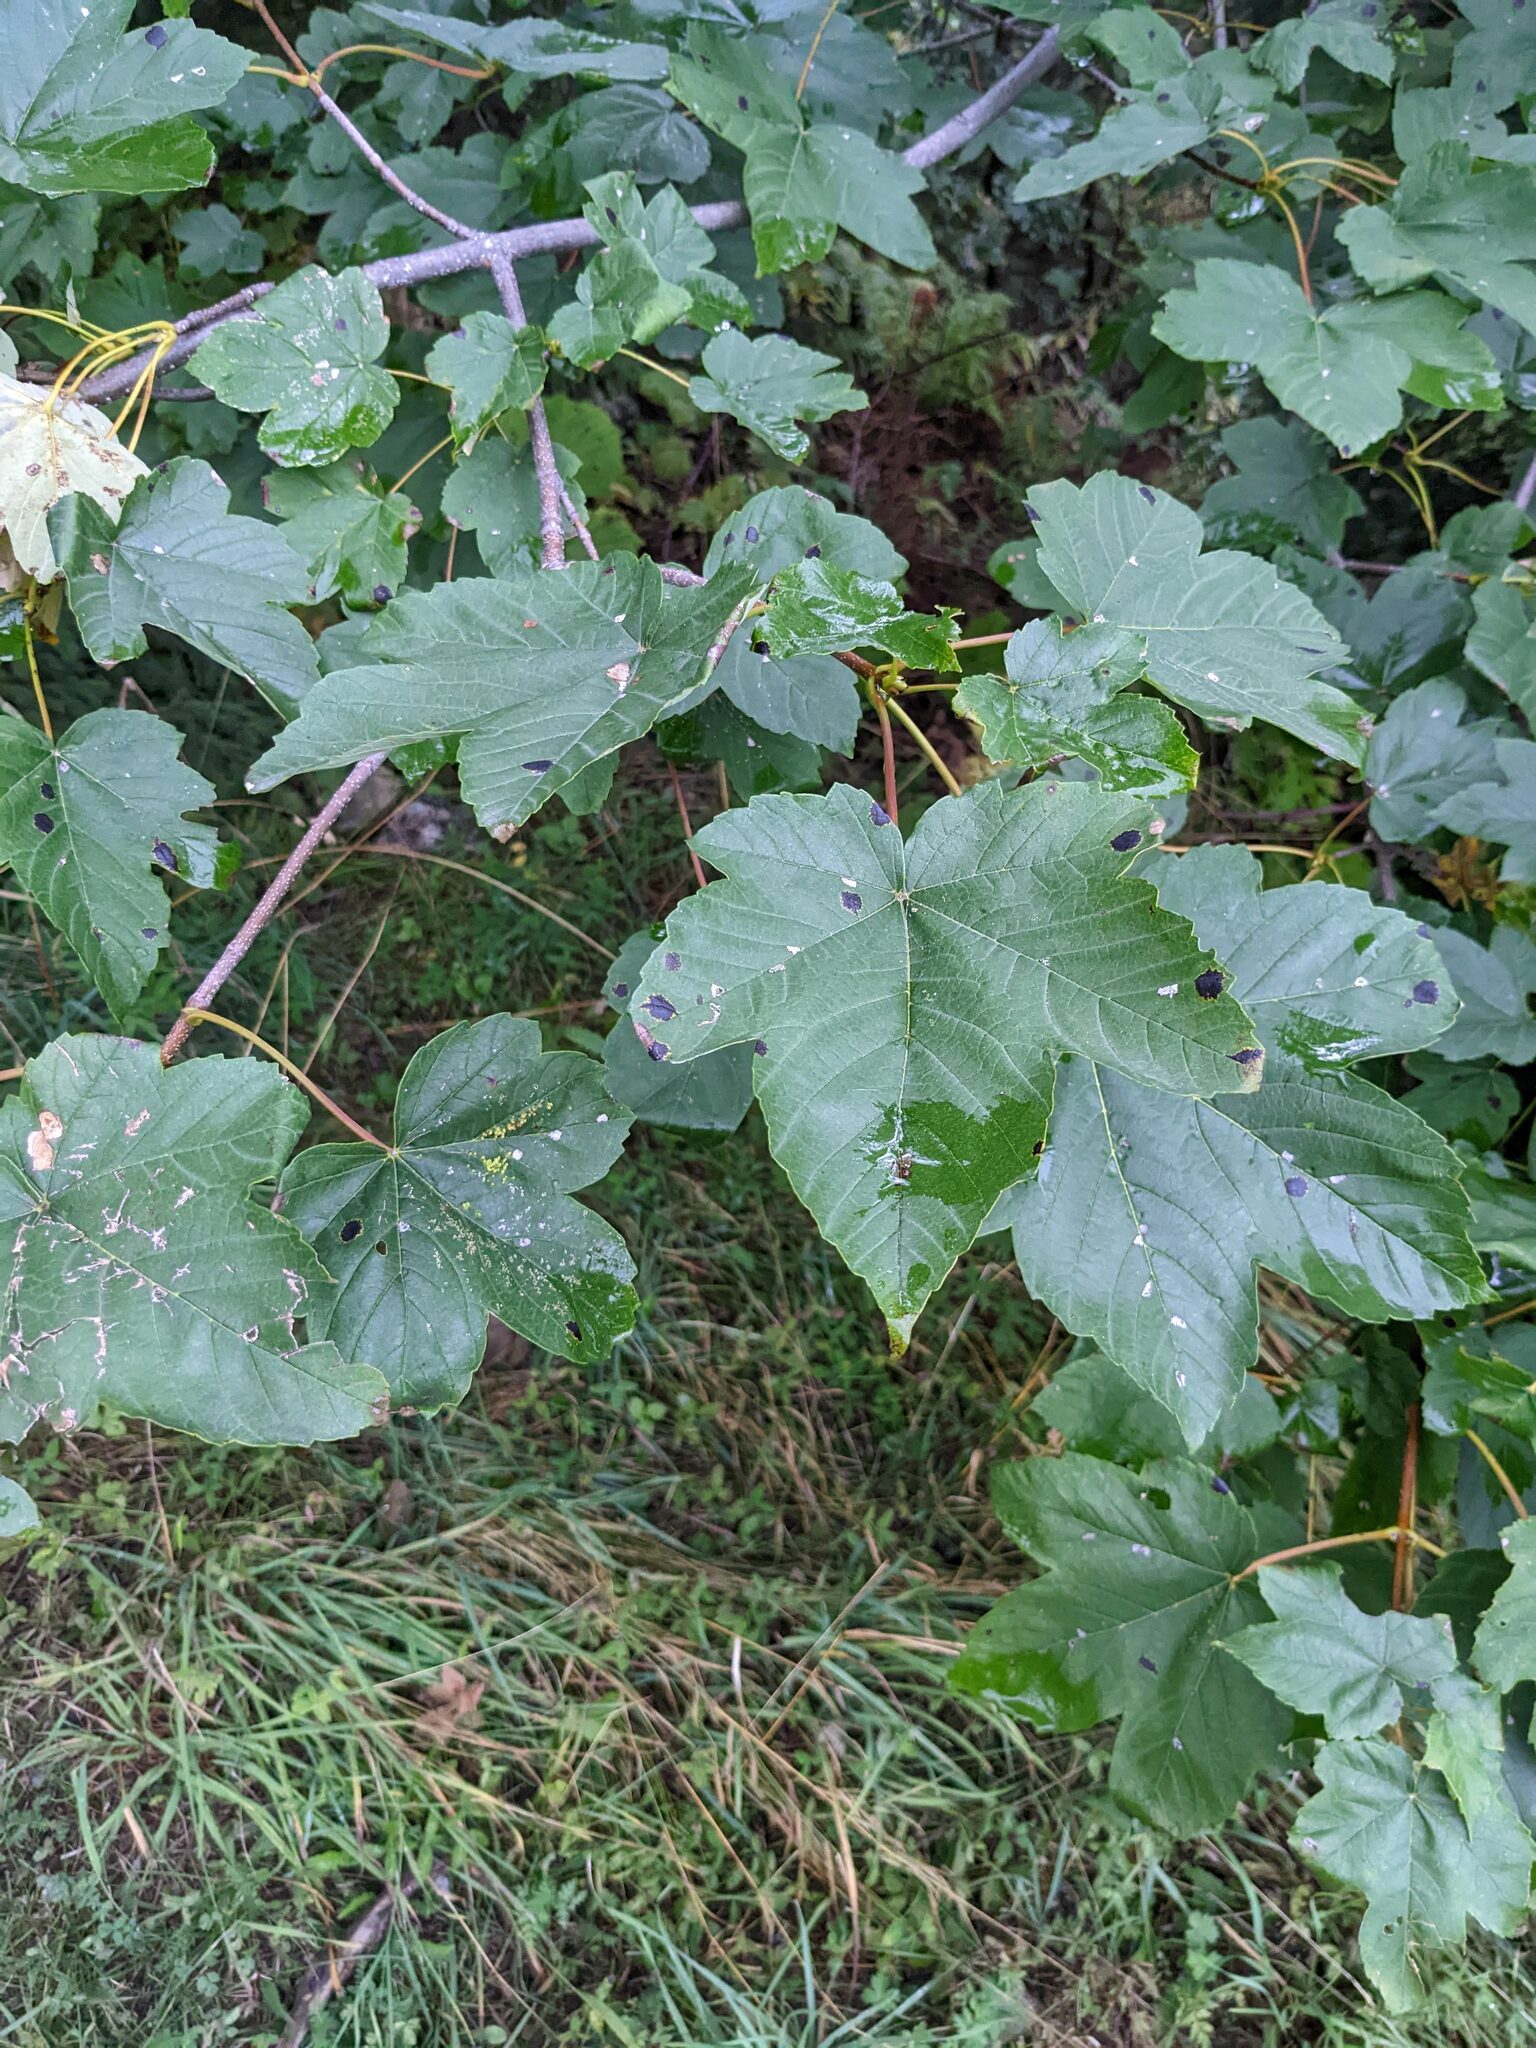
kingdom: Plantae
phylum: Tracheophyta
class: Magnoliopsida
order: Sapindales
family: Sapindaceae
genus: Acer
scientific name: Acer pseudoplatanus
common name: Sycamore
